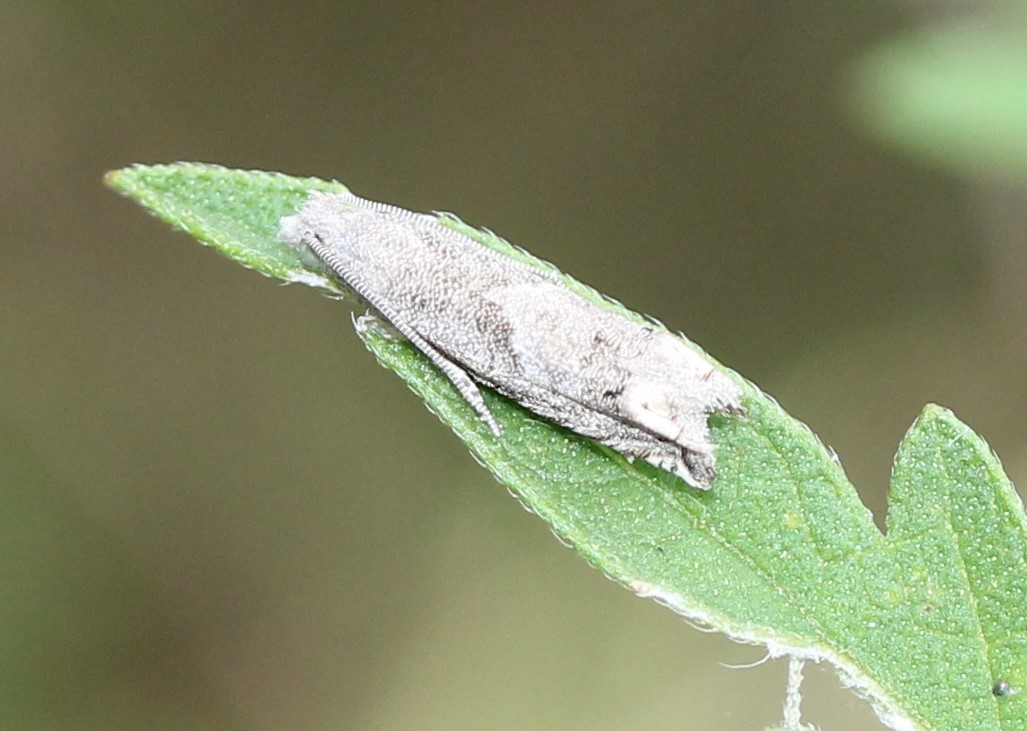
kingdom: Animalia
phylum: Arthropoda
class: Insecta
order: Lepidoptera
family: Tortricidae
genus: Epiblema
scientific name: Epiblema strenuana
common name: Ragweed borer moth
